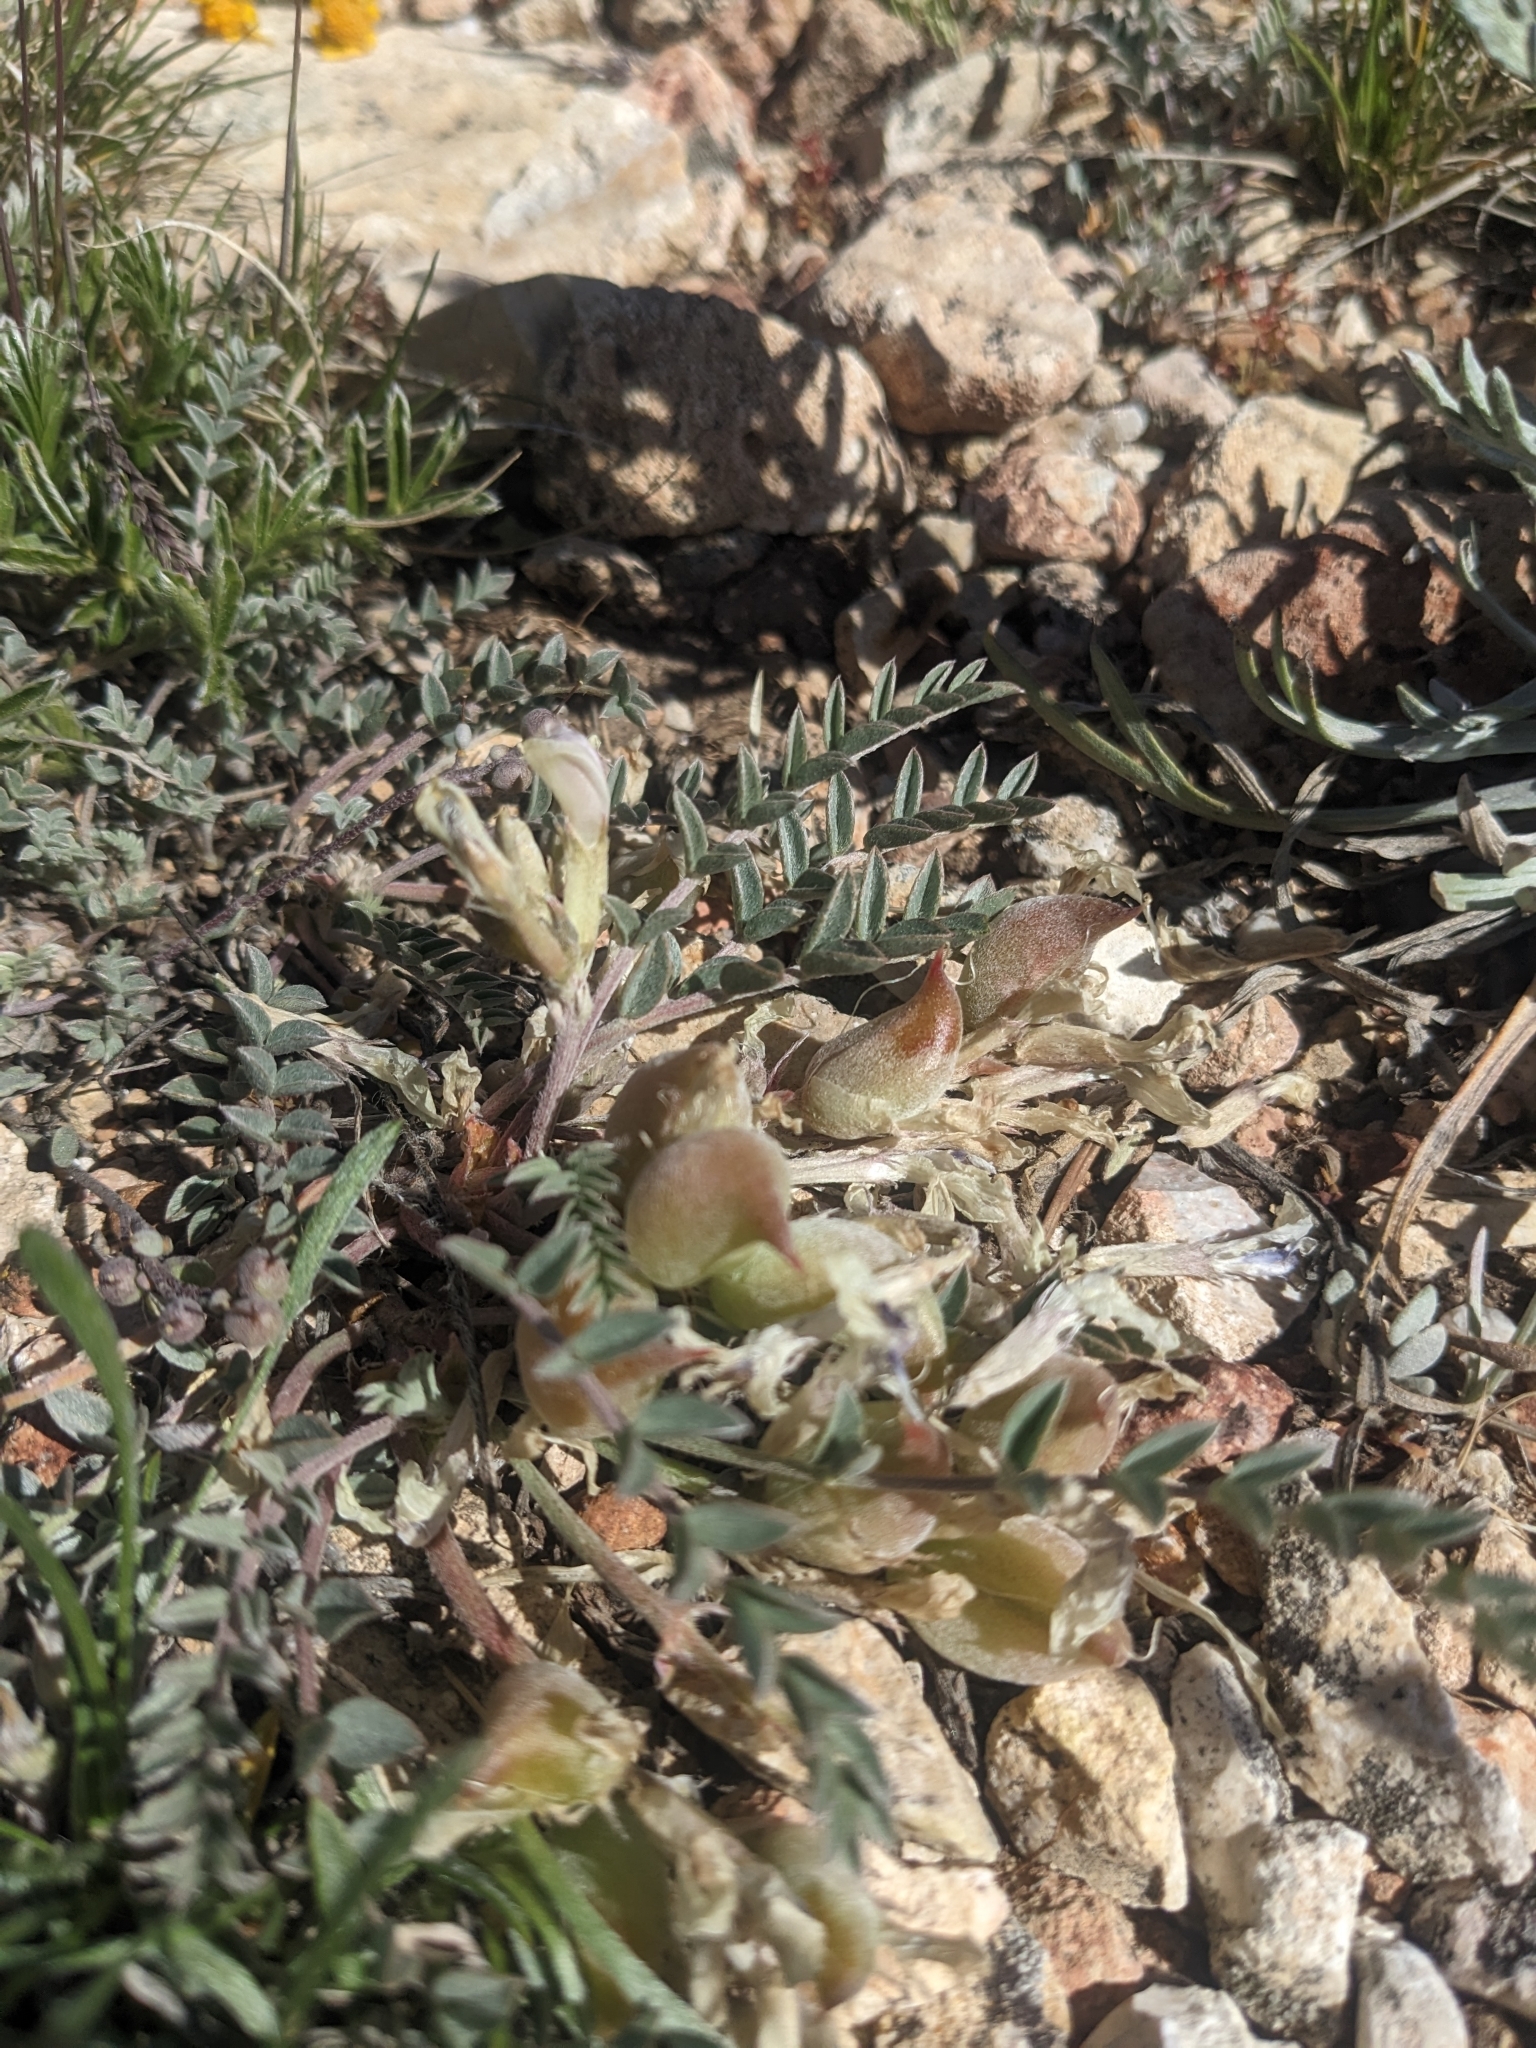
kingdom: Plantae
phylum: Tracheophyta
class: Magnoliopsida
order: Fabales
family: Fabaceae
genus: Astragalus
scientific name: Astragalus castaneiformis
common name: Chestnut milk-vetch
